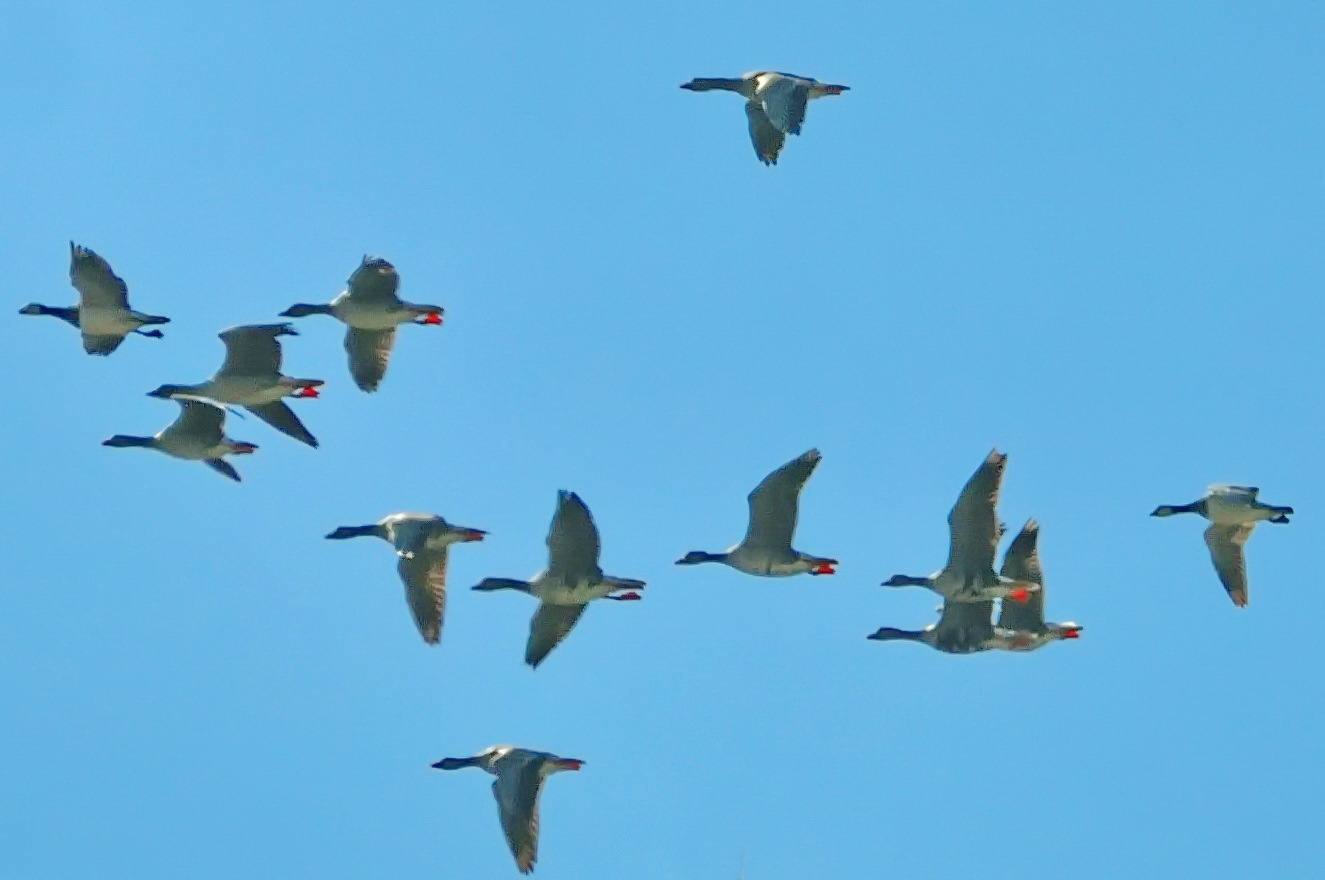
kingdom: Animalia
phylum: Chordata
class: Aves
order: Anseriformes
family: Anatidae
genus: Branta
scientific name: Branta leucopsis
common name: Barnacle goose
